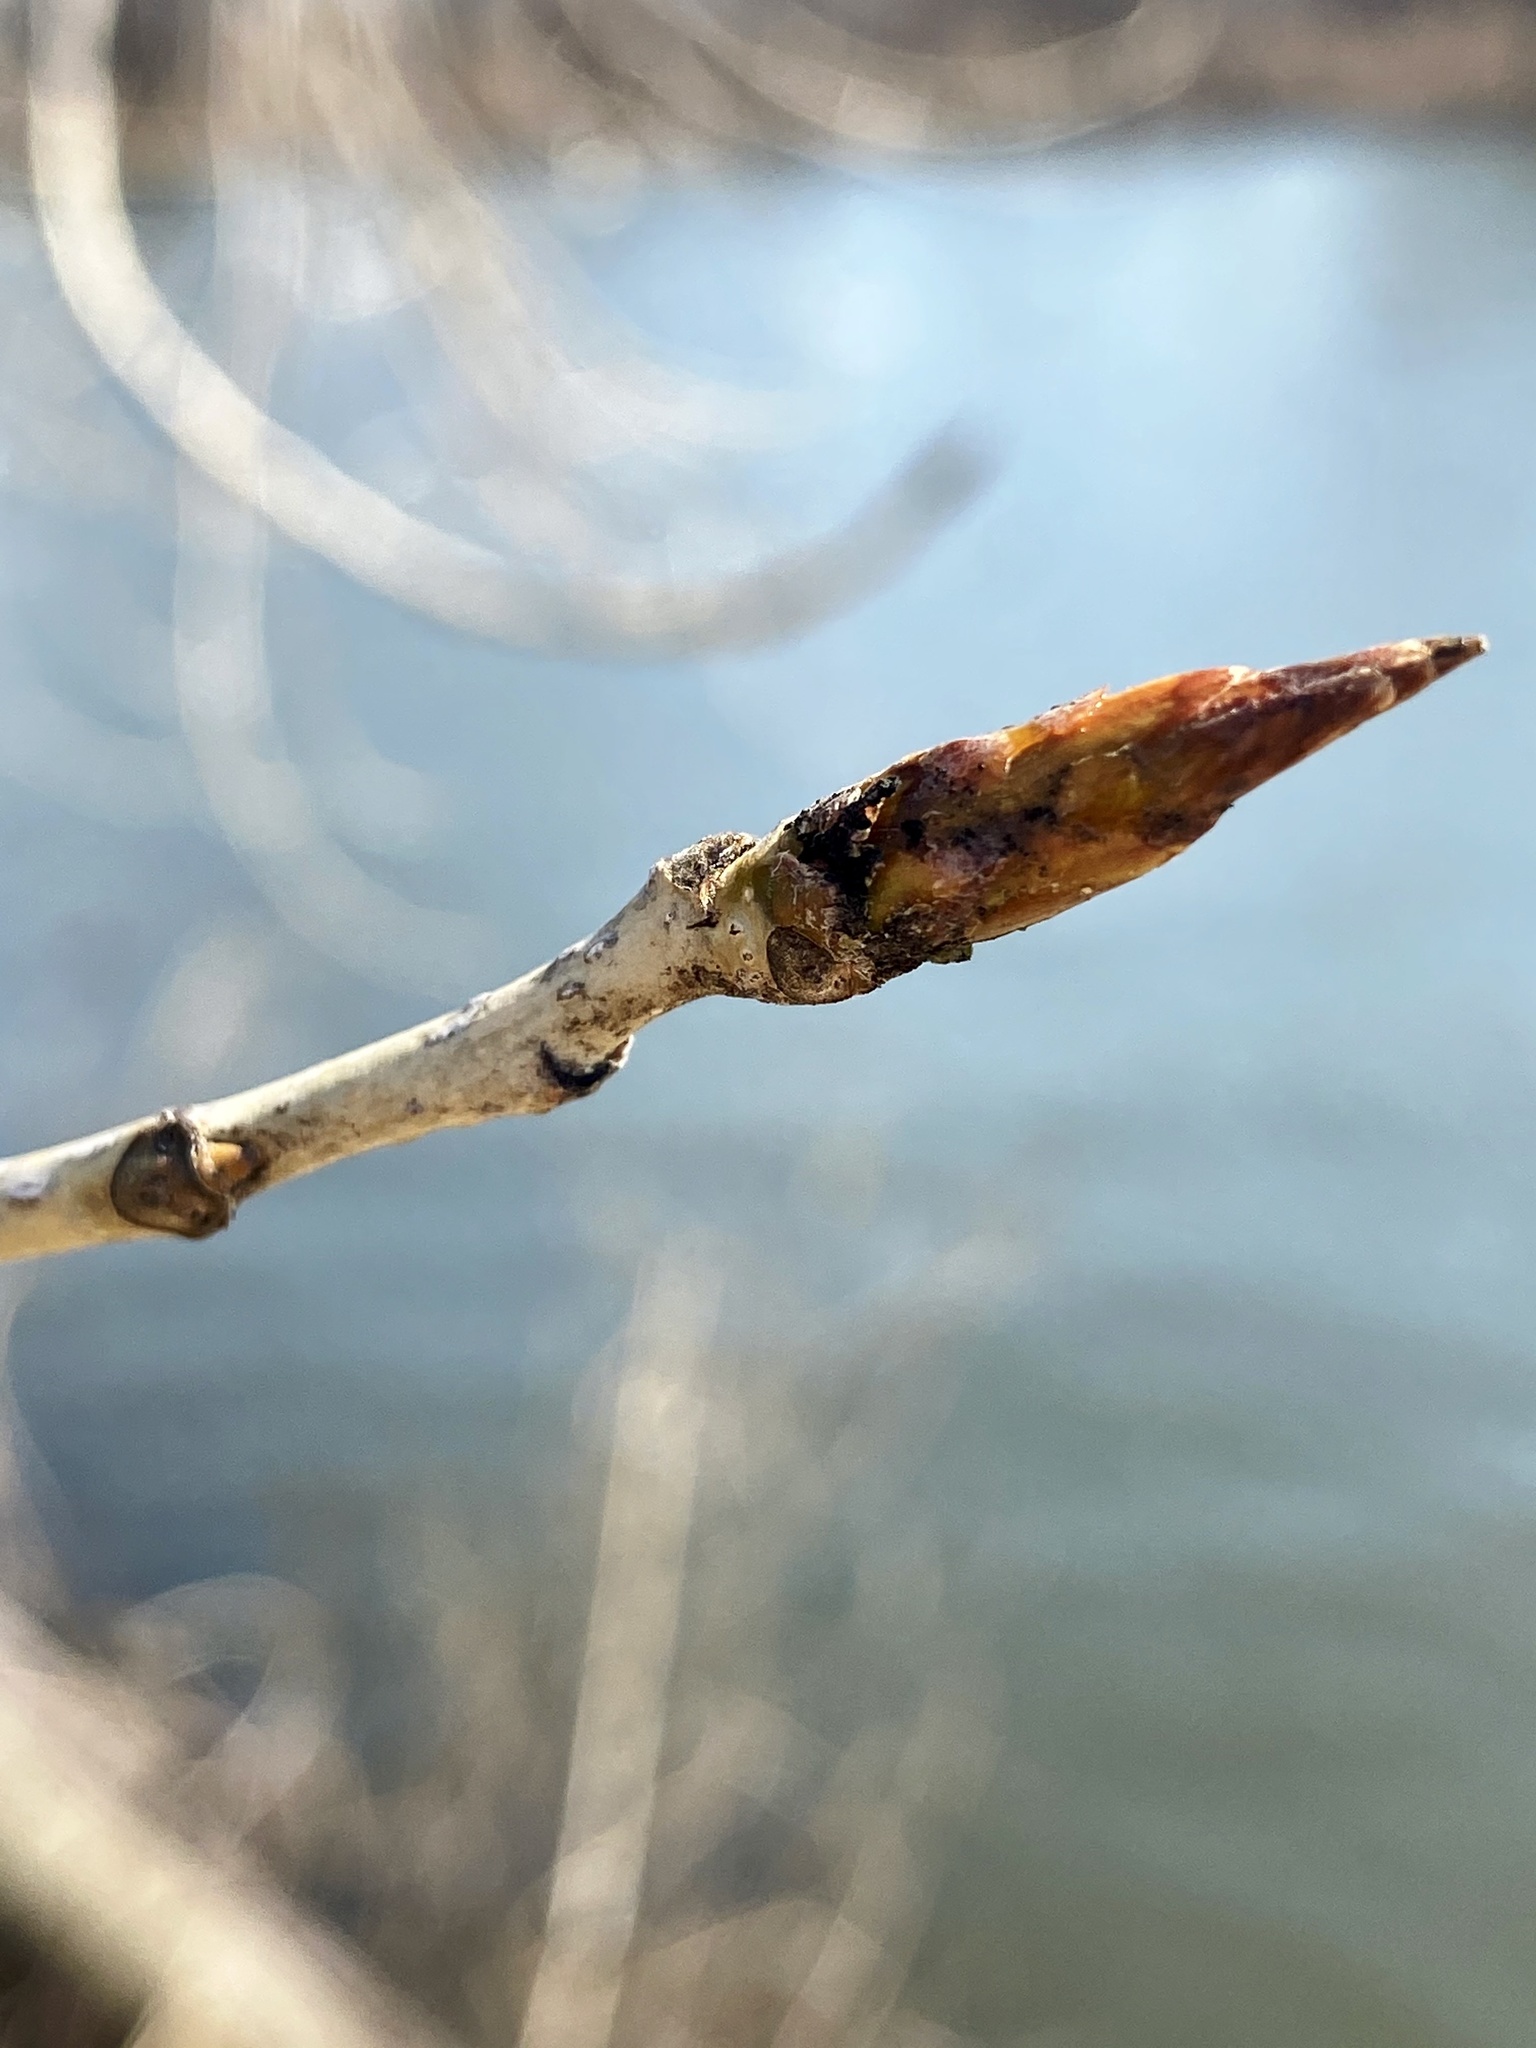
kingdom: Plantae
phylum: Tracheophyta
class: Magnoliopsida
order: Malpighiales
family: Salicaceae
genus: Populus
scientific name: Populus deltoides
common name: Eastern cottonwood
